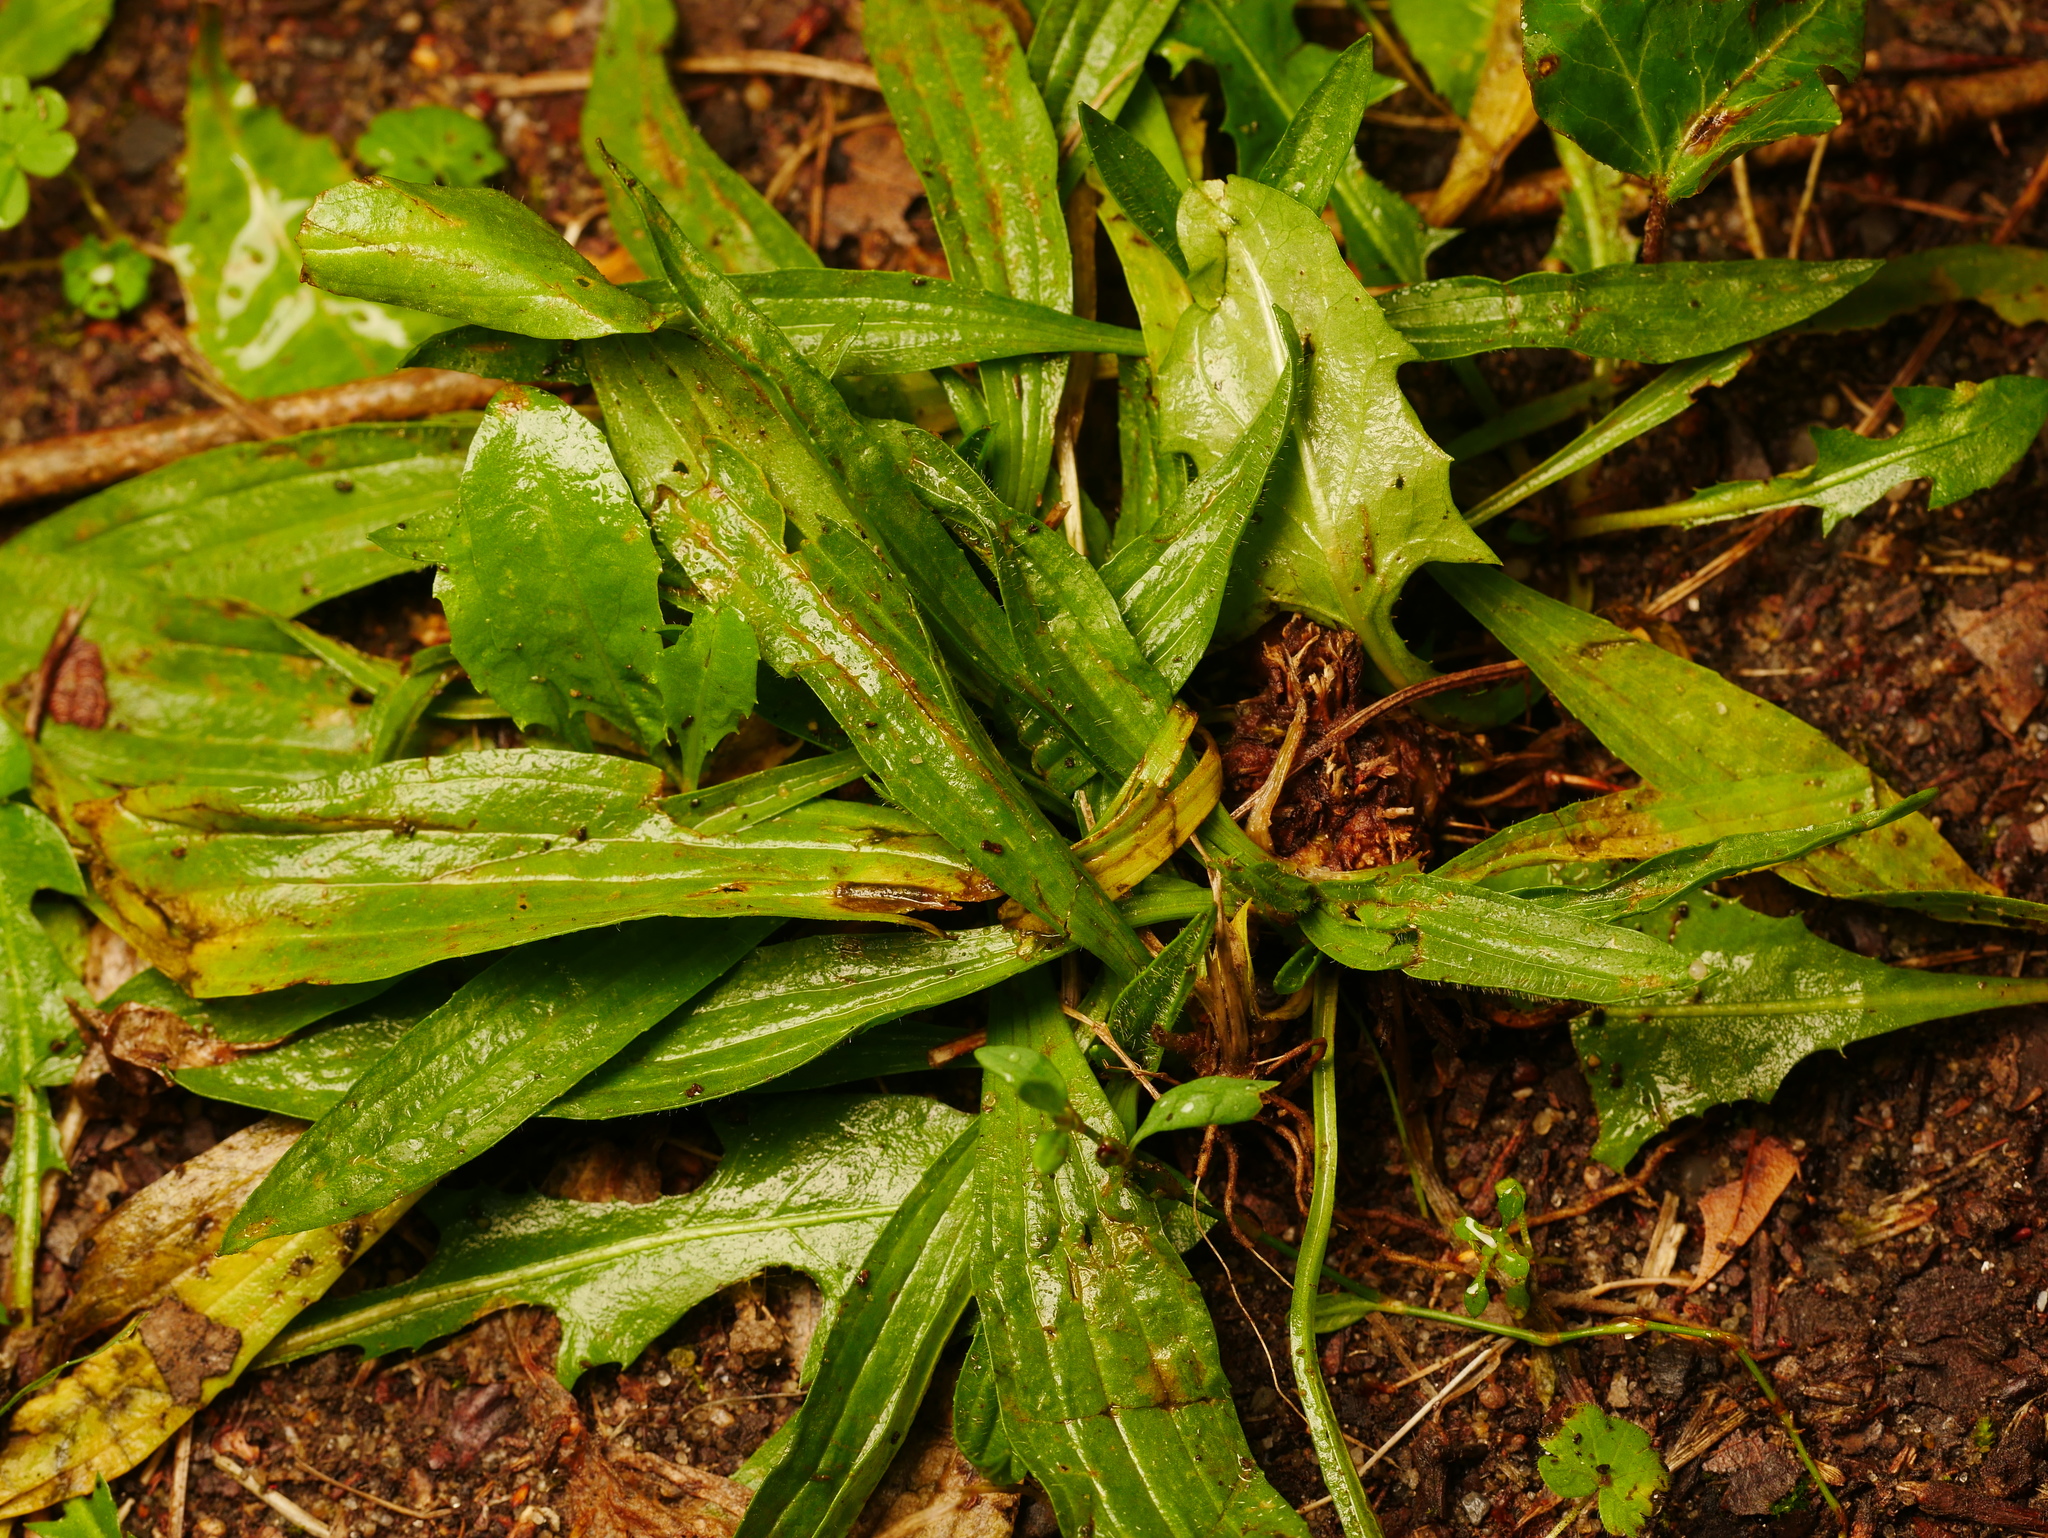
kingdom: Plantae
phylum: Tracheophyta
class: Magnoliopsida
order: Lamiales
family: Plantaginaceae
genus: Plantago
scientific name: Plantago lanceolata
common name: Ribwort plantain
